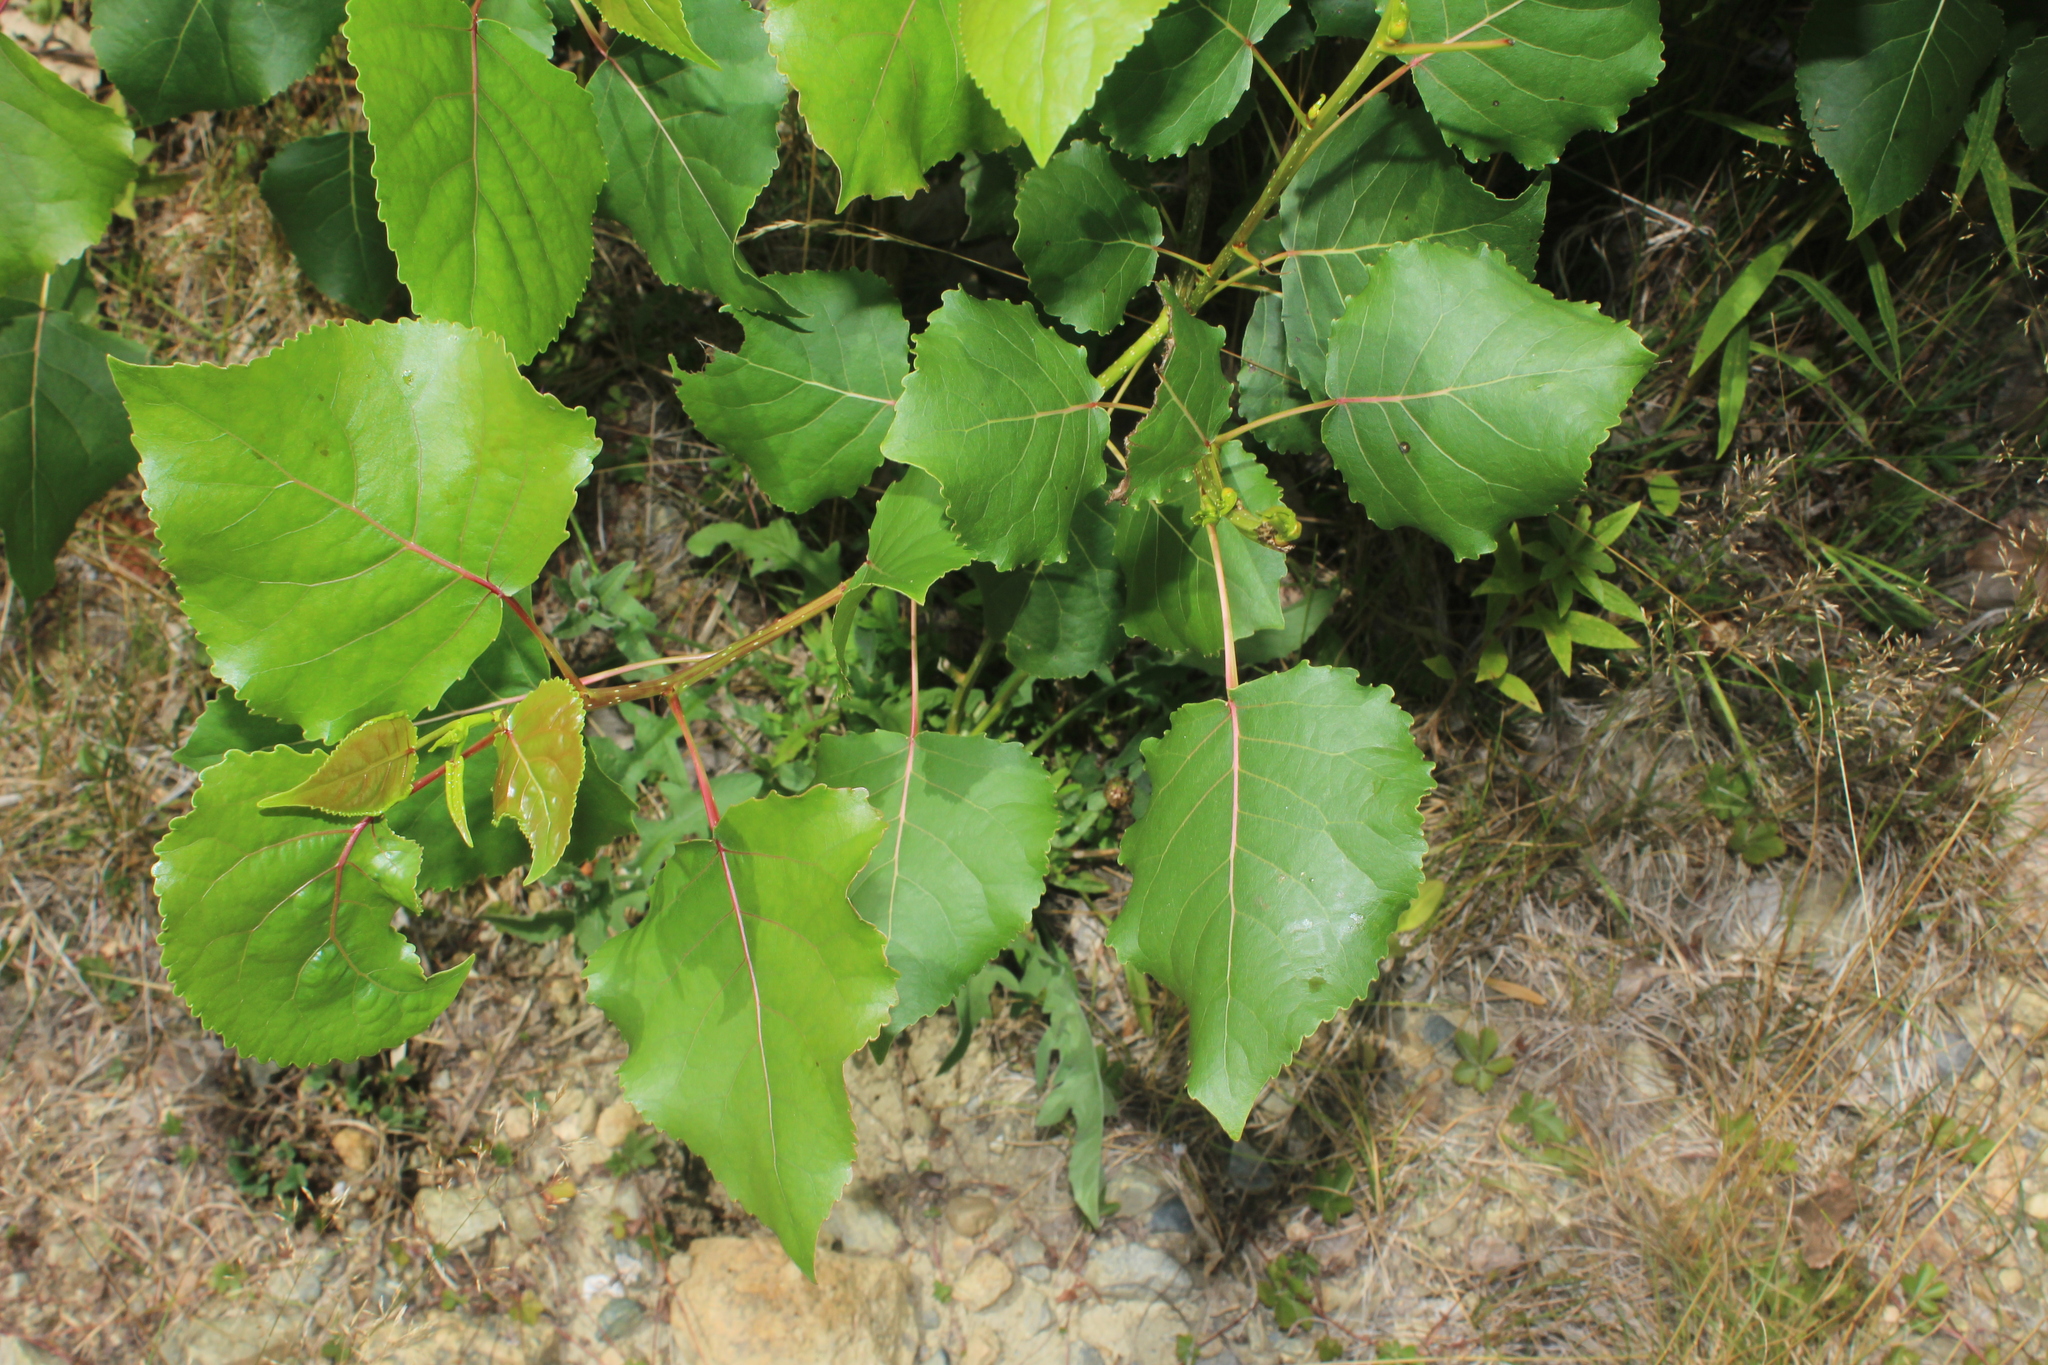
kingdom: Plantae
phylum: Tracheophyta
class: Magnoliopsida
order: Malpighiales
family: Salicaceae
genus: Populus
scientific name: Populus deltoides
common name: Eastern cottonwood
